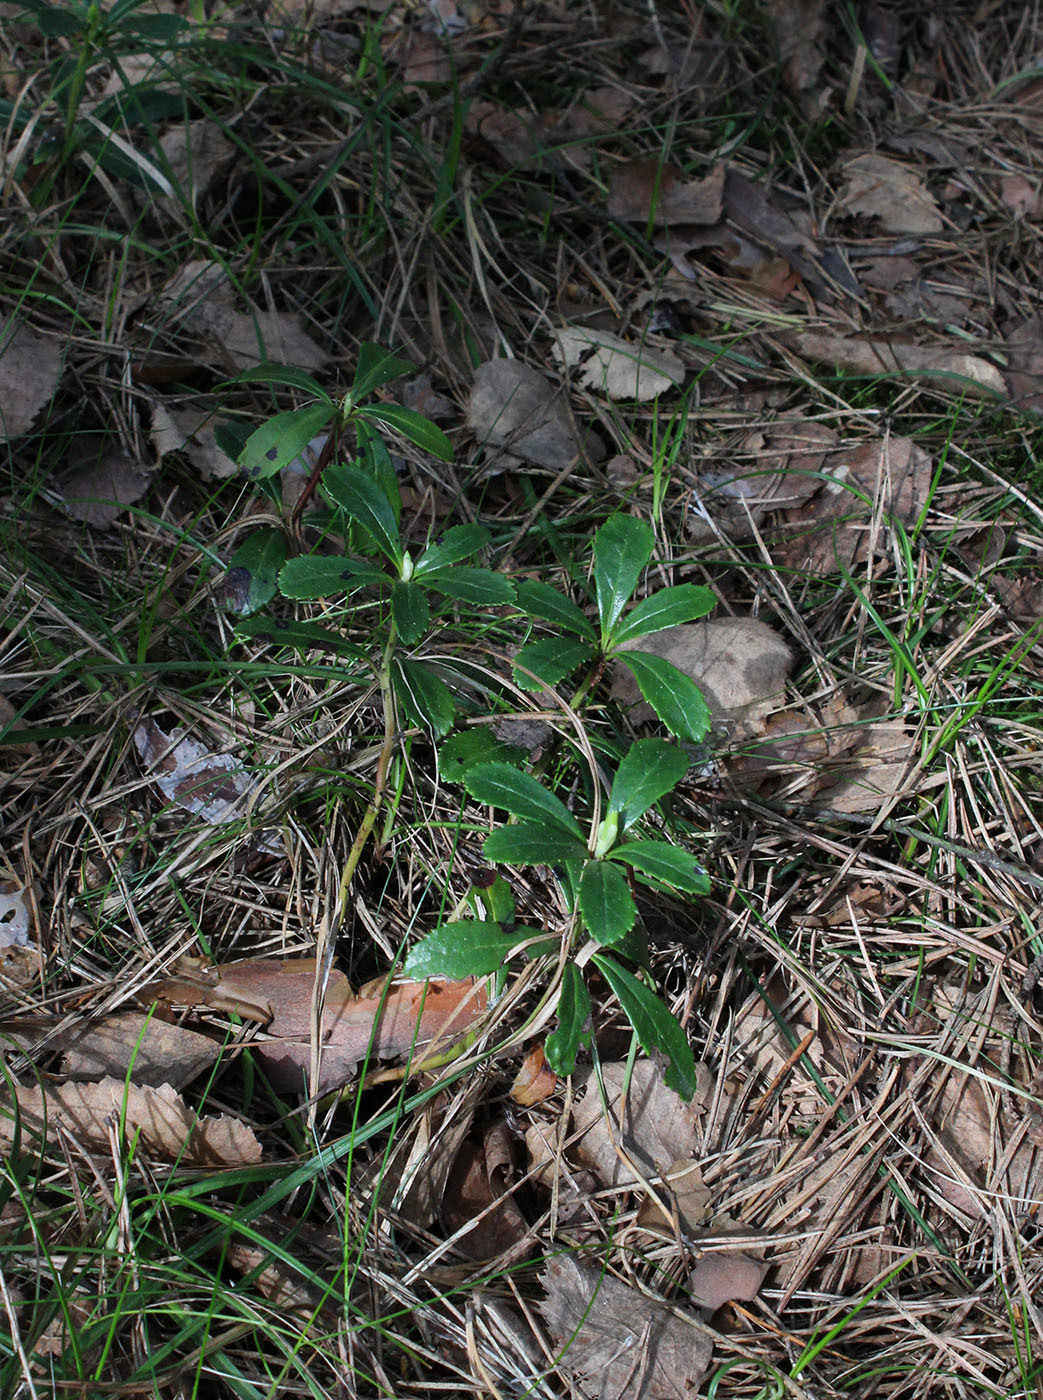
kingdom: Plantae
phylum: Tracheophyta
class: Magnoliopsida
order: Ericales
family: Ericaceae
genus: Chimaphila
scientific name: Chimaphila umbellata
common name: Pipsissewa
